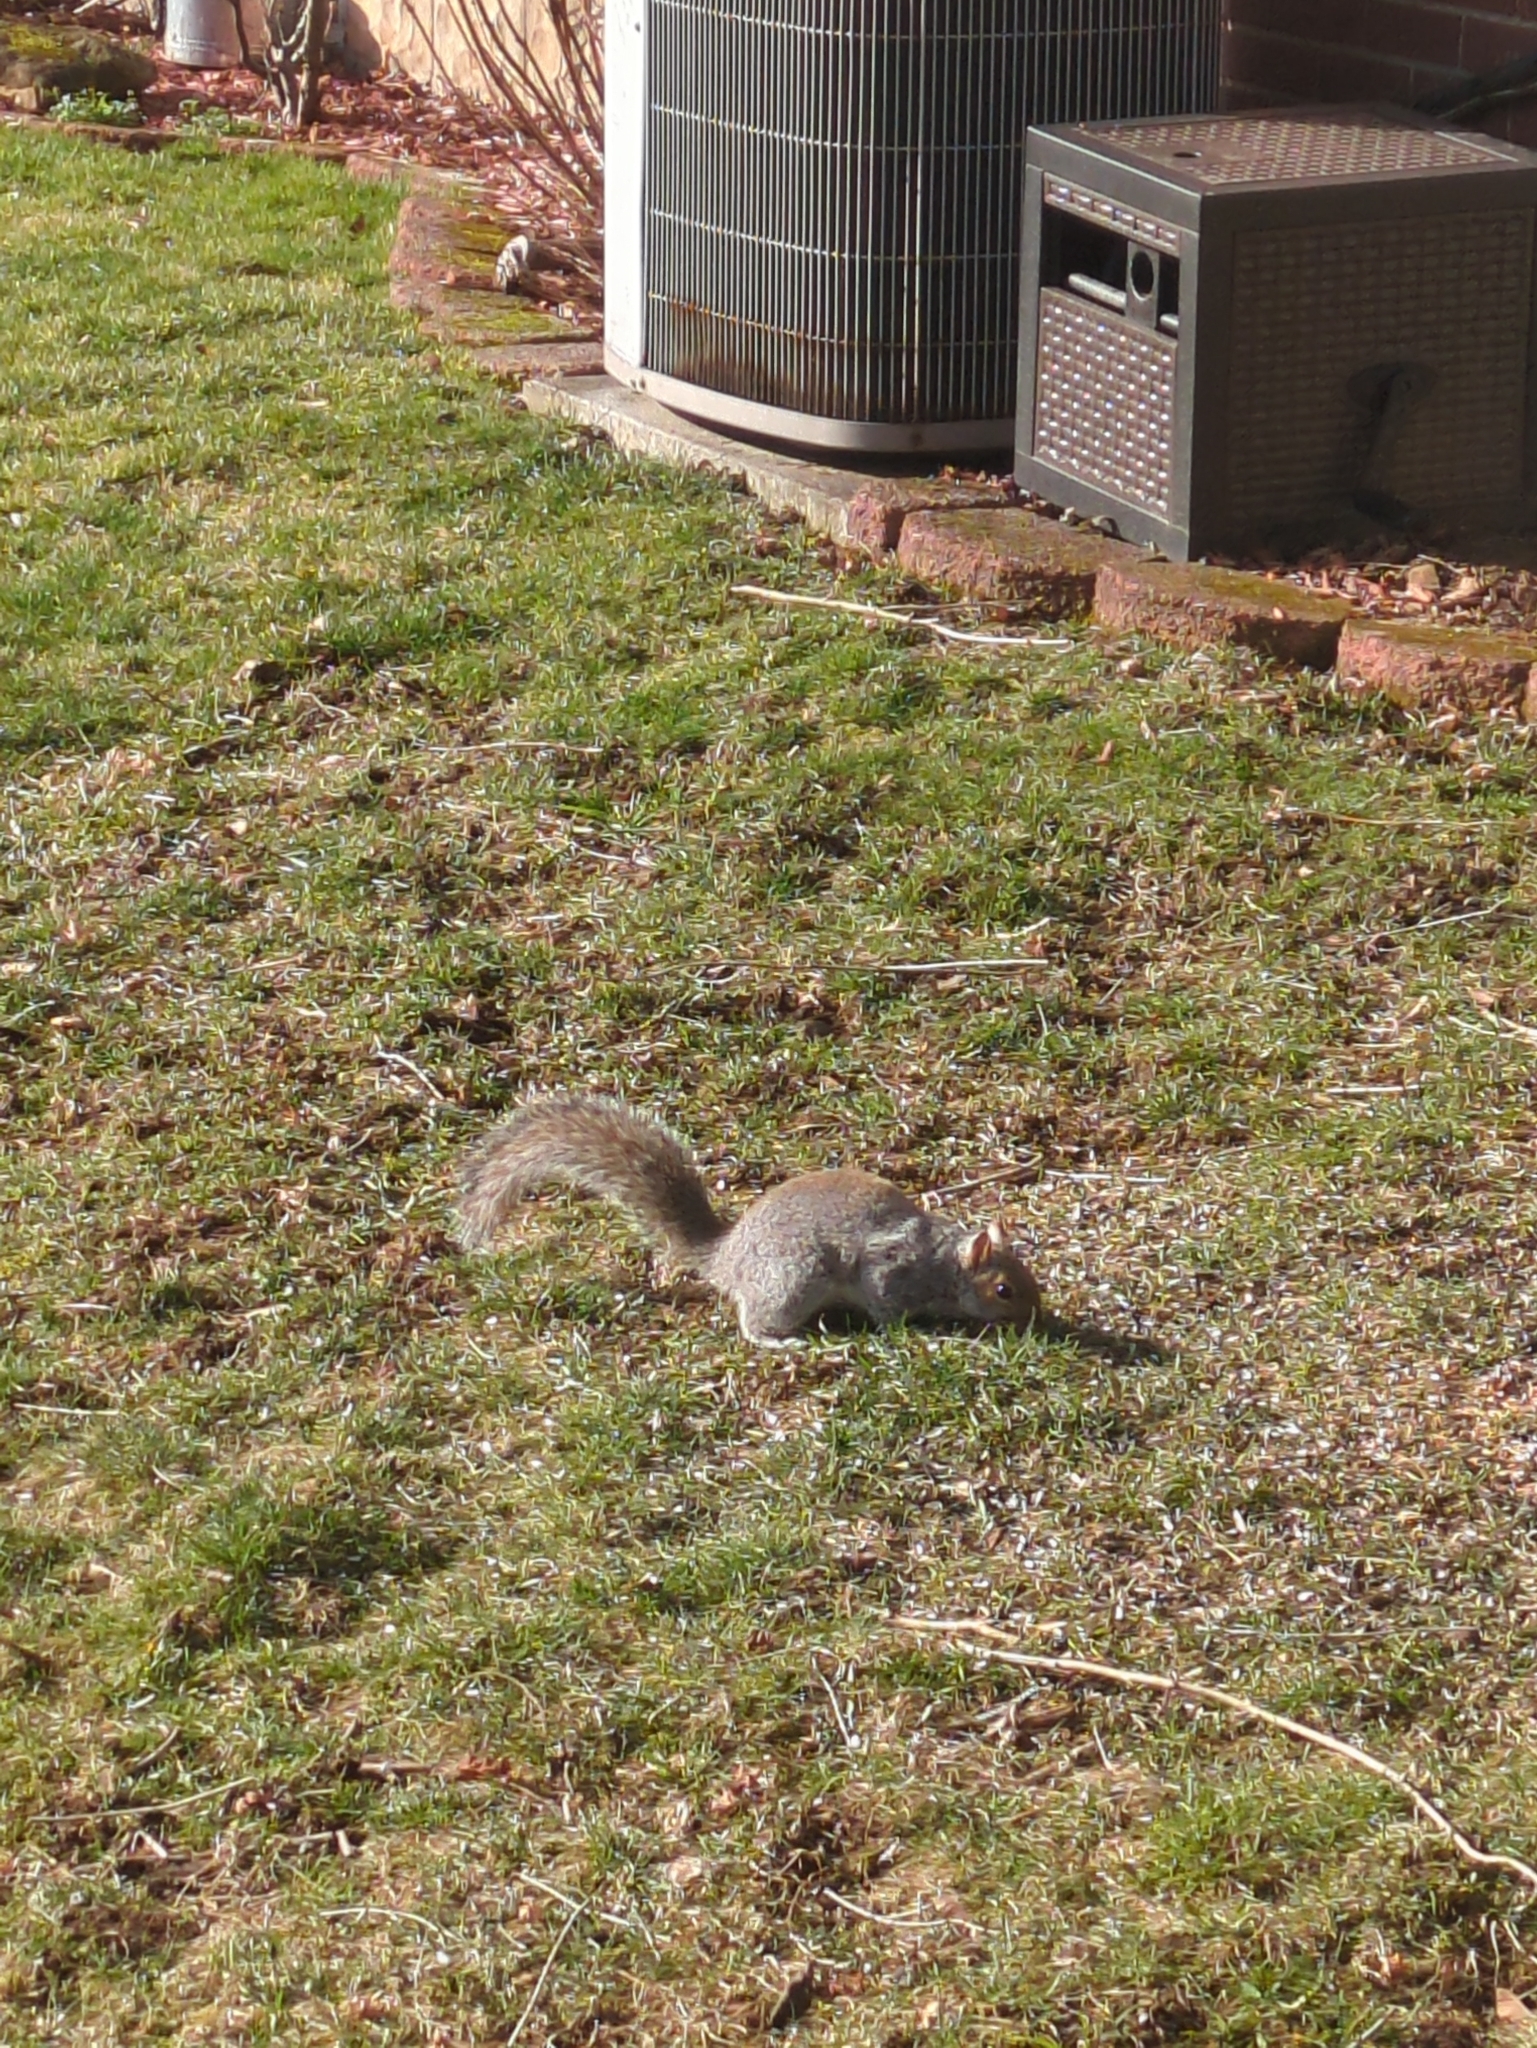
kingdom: Animalia
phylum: Chordata
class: Mammalia
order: Rodentia
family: Sciuridae
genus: Sciurus
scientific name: Sciurus carolinensis
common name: Eastern gray squirrel
